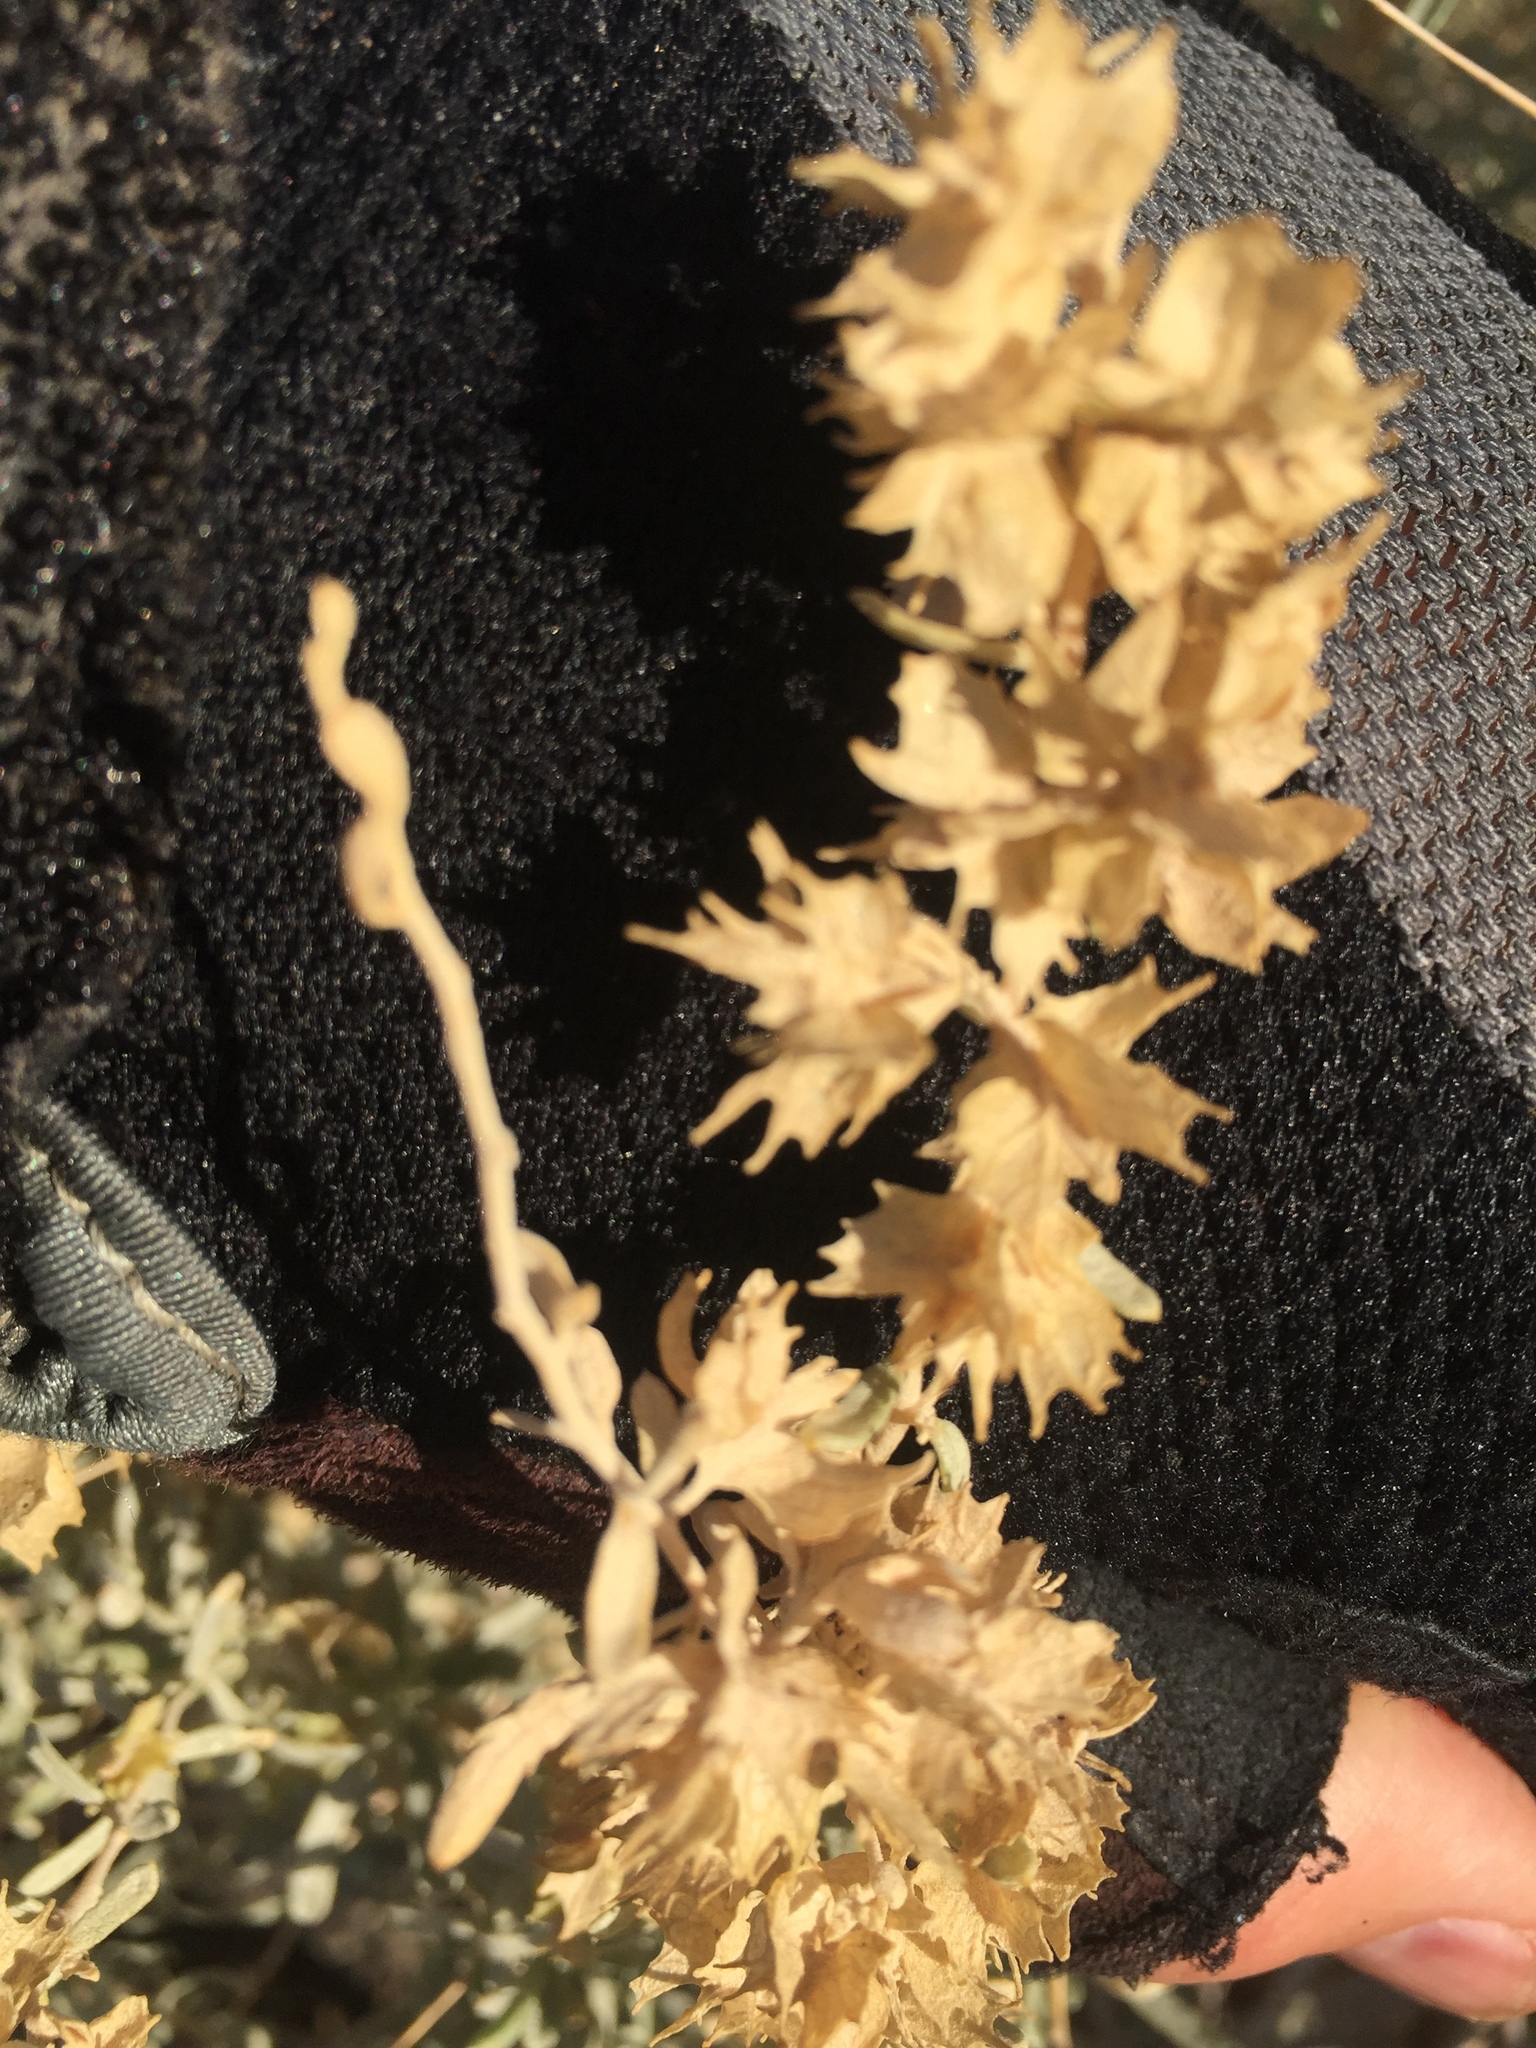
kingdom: Plantae
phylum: Tracheophyta
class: Magnoliopsida
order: Caryophyllales
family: Amaranthaceae
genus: Atriplex
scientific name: Atriplex canescens
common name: Four-wing saltbush
